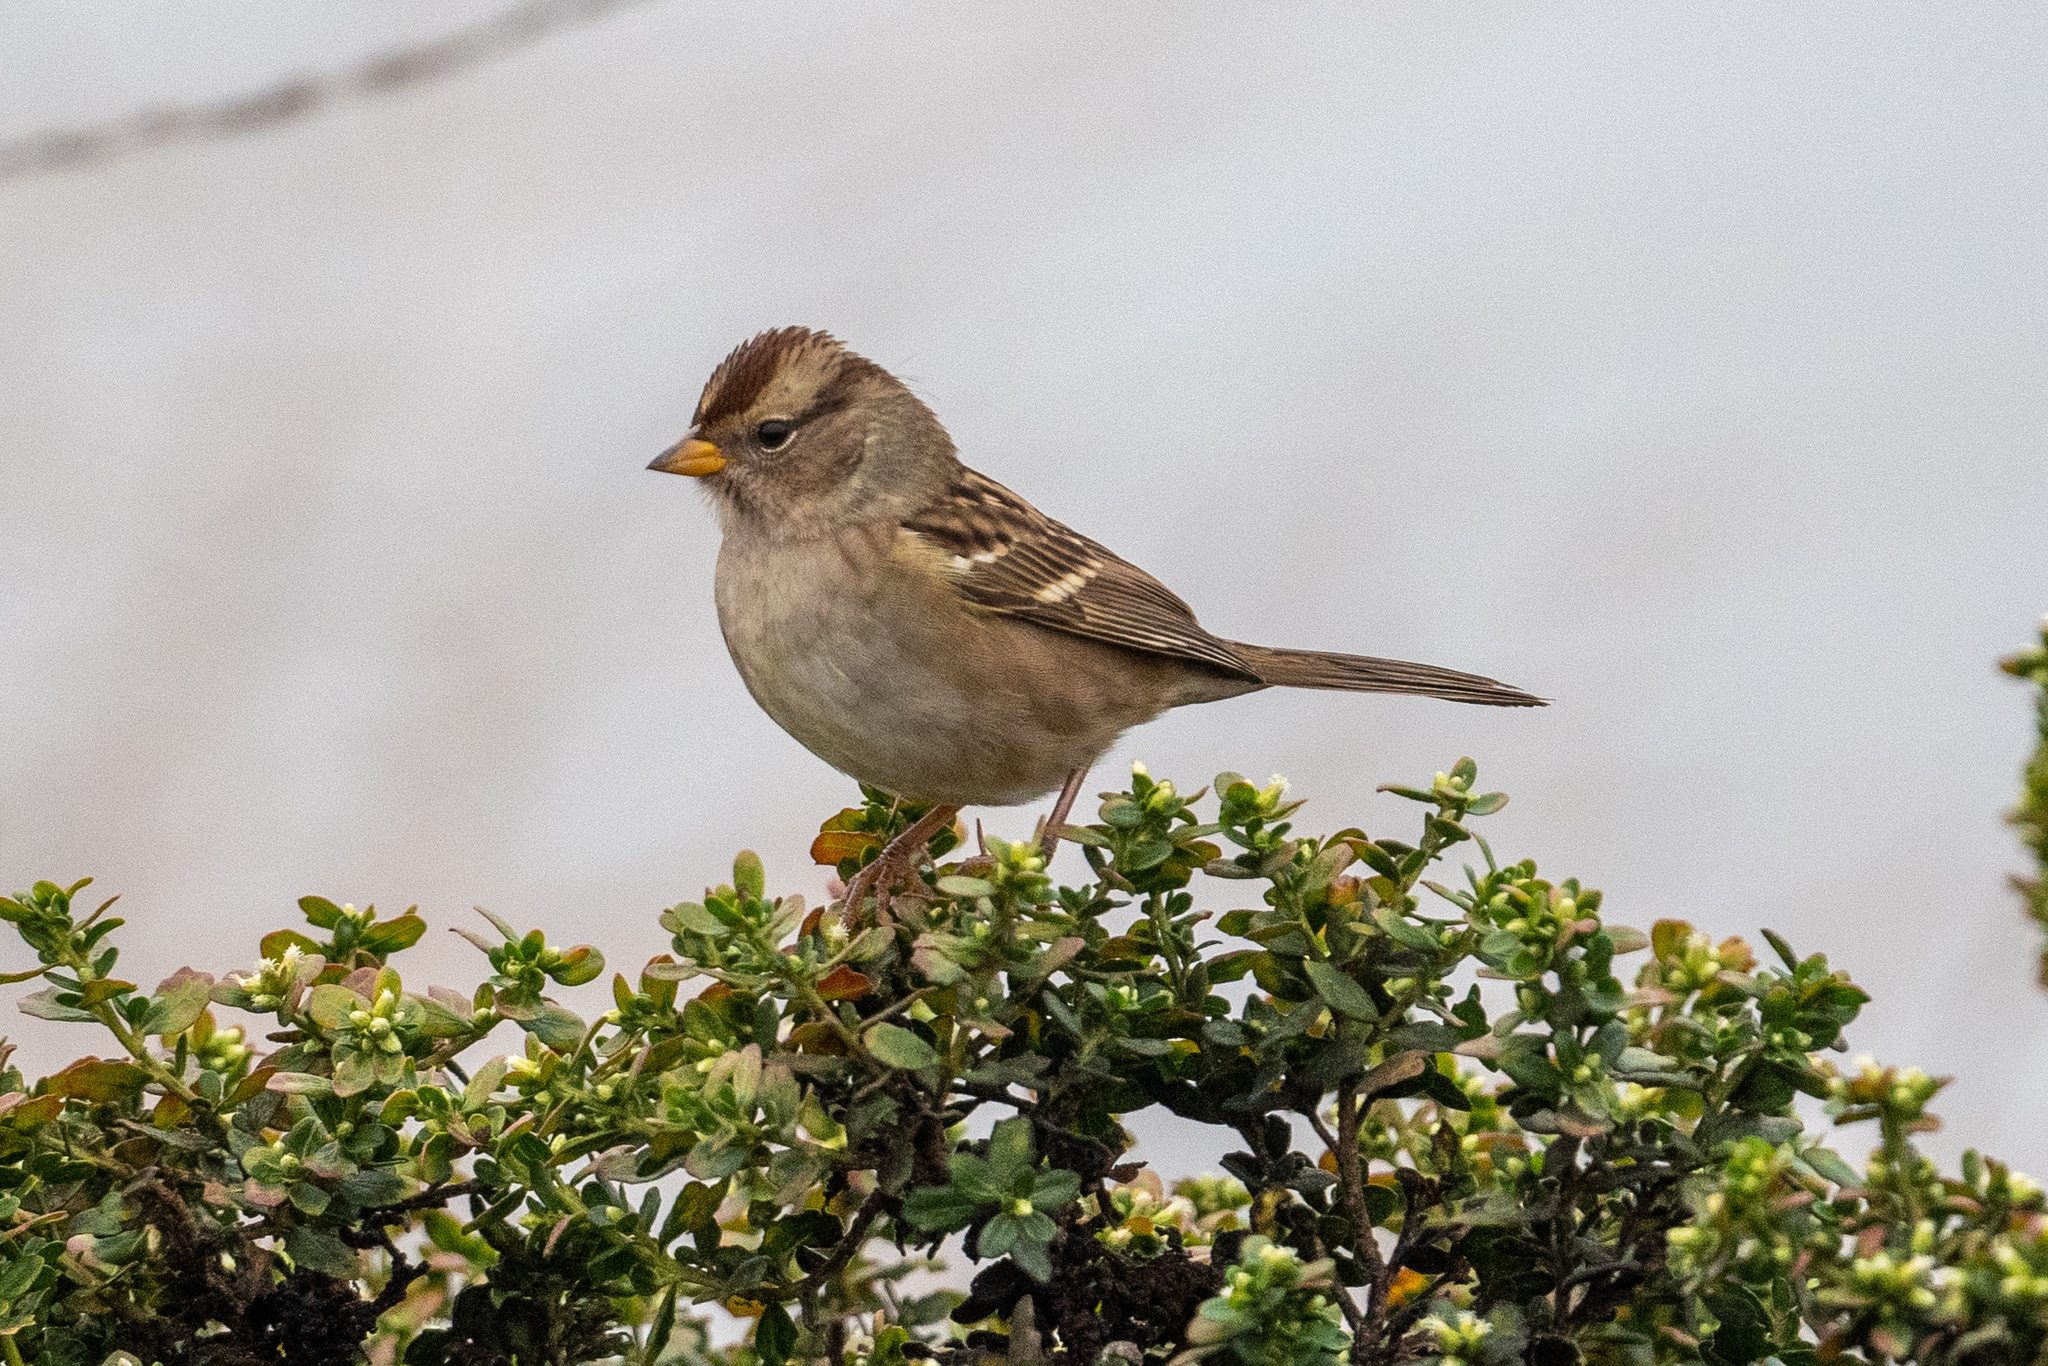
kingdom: Animalia
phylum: Chordata
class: Aves
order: Passeriformes
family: Passerellidae
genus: Zonotrichia
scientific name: Zonotrichia leucophrys
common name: White-crowned sparrow
